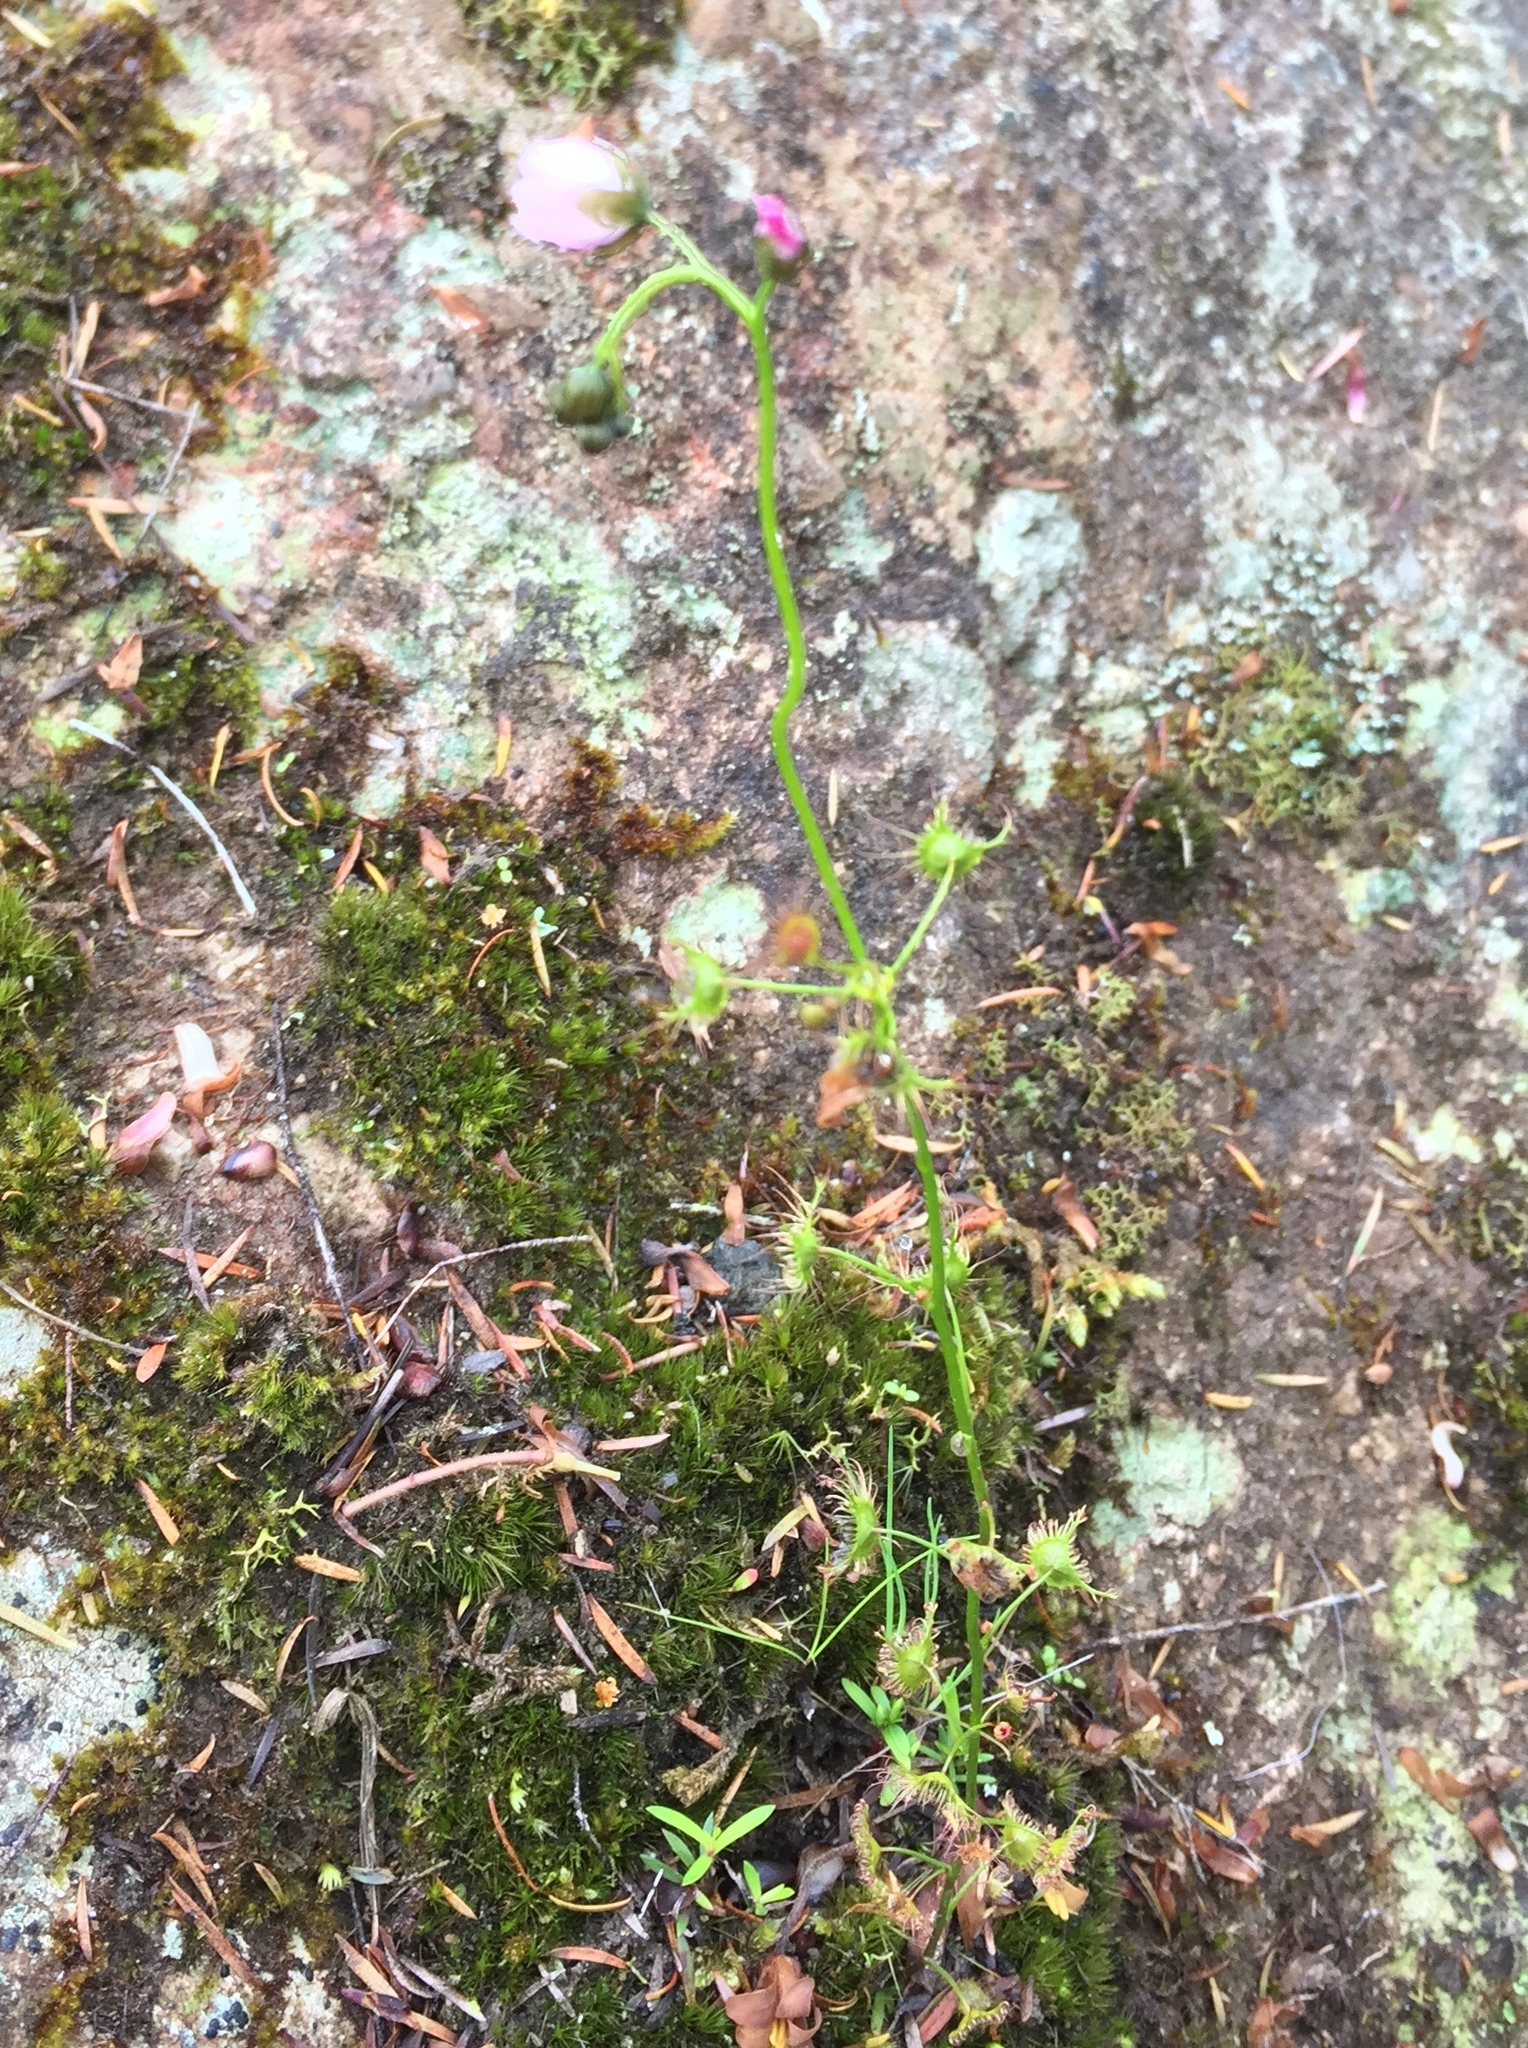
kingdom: Plantae
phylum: Tracheophyta
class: Magnoliopsida
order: Caryophyllales
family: Droseraceae
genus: Drosera
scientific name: Drosera peltata
